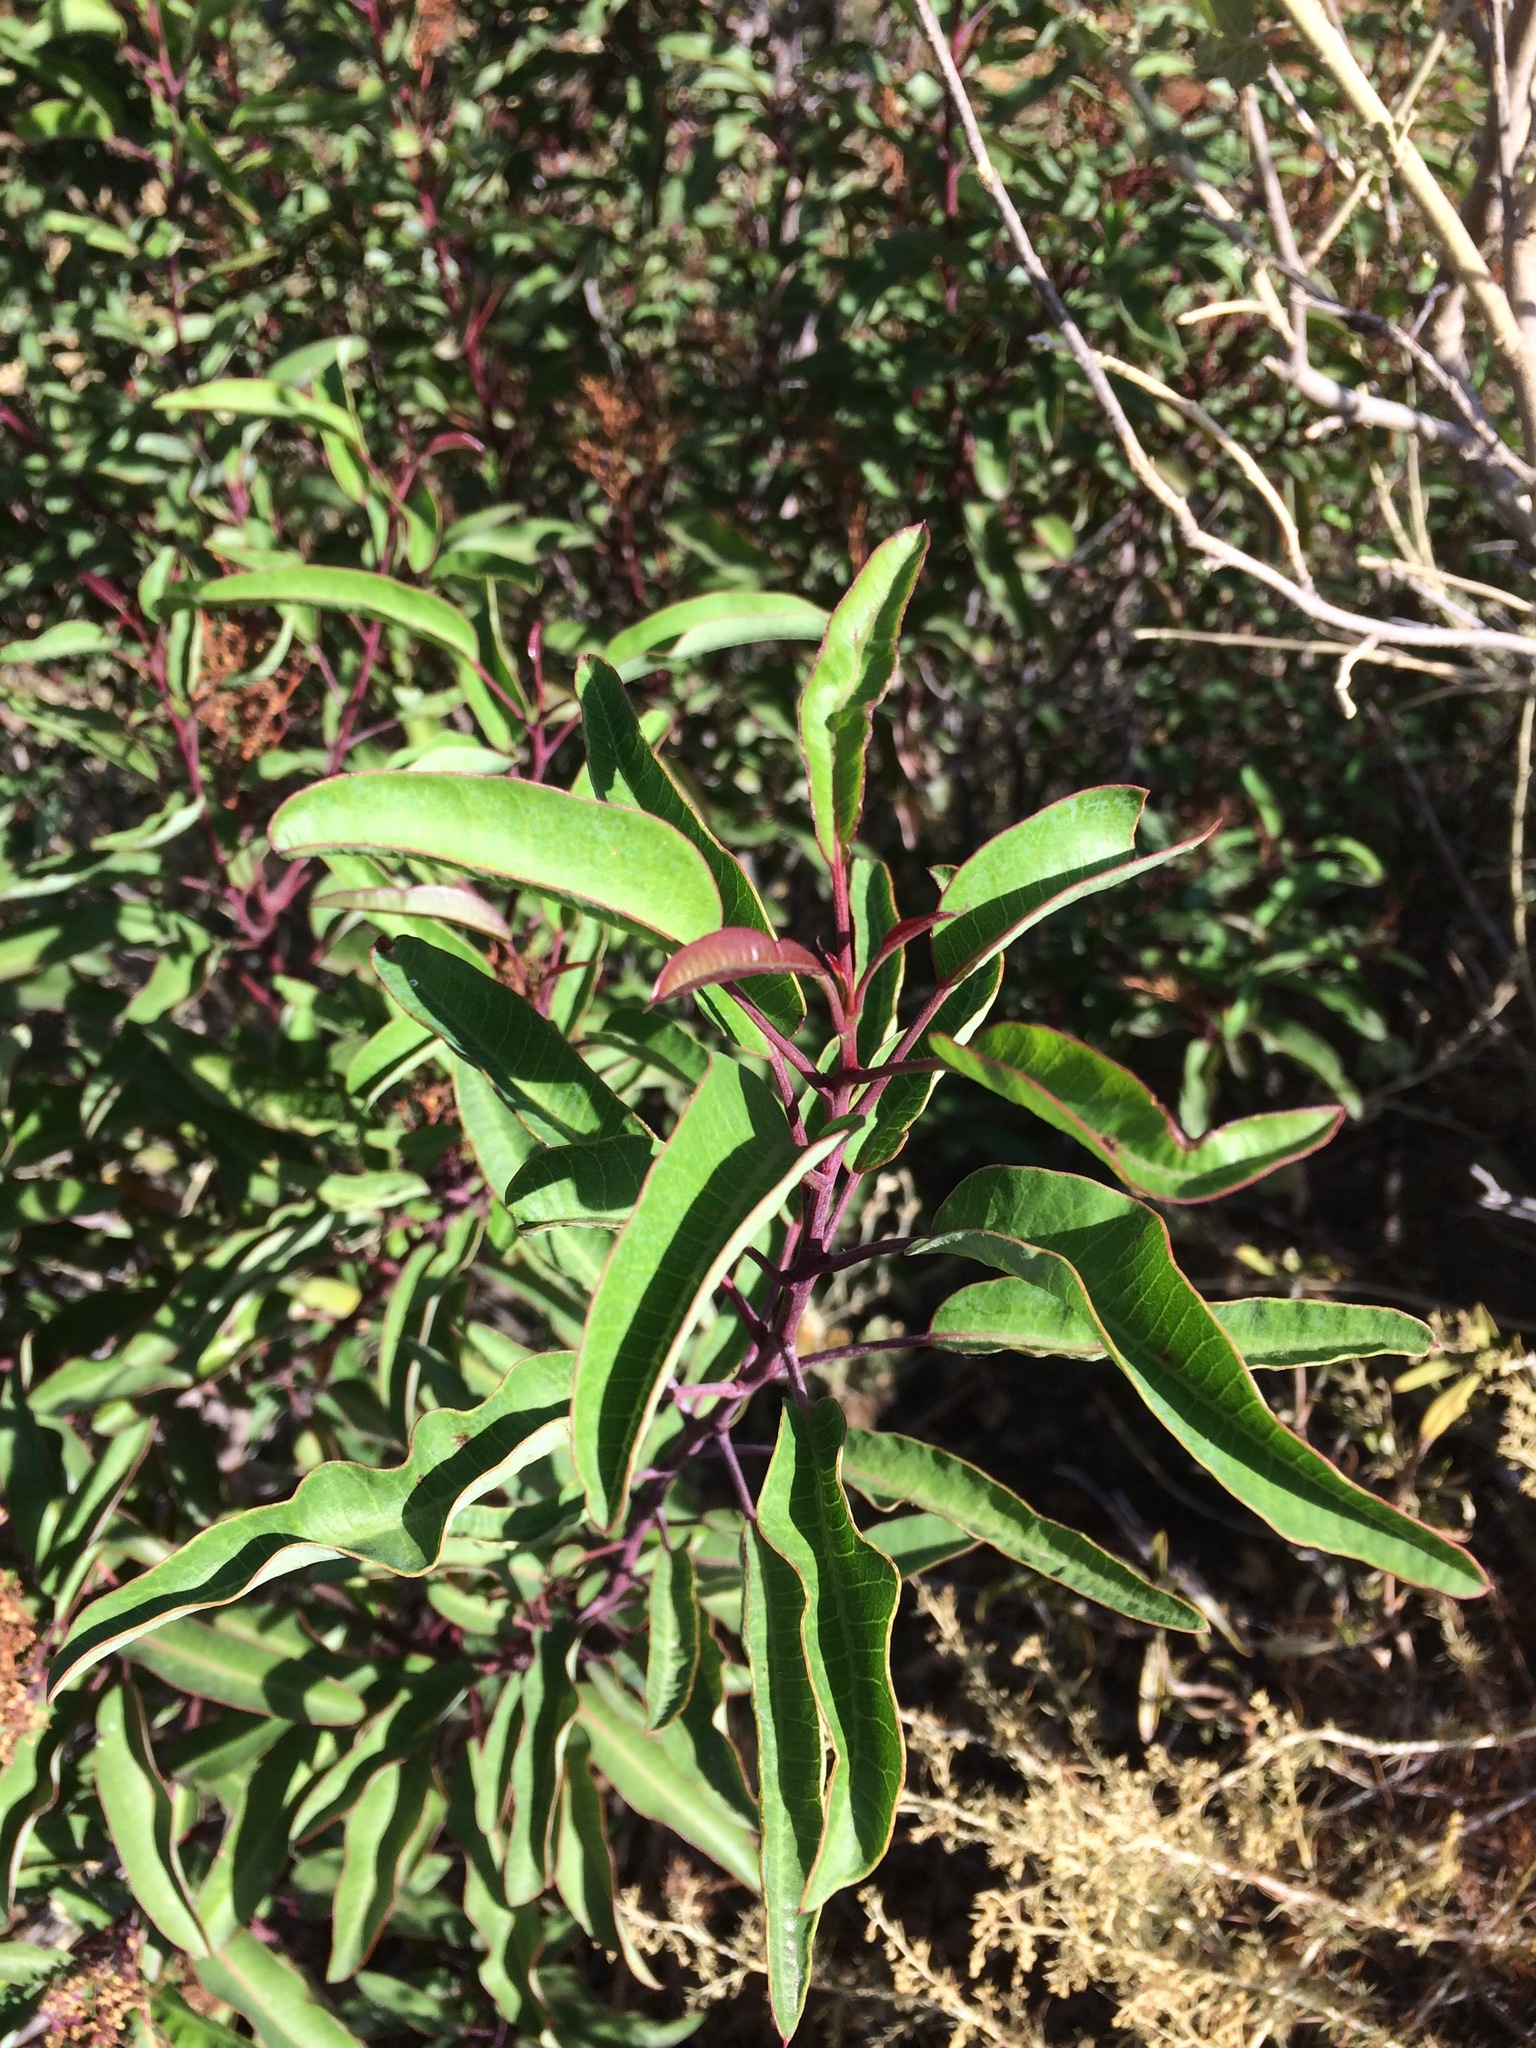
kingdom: Plantae
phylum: Tracheophyta
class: Magnoliopsida
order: Sapindales
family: Anacardiaceae
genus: Malosma
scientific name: Malosma laurina
